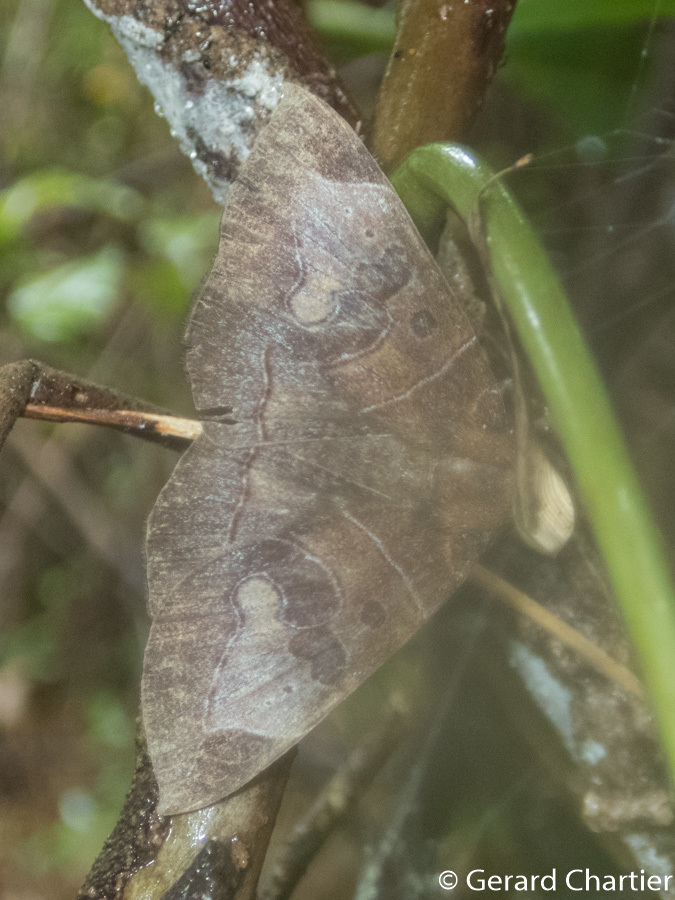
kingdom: Animalia
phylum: Arthropoda
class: Insecta
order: Lepidoptera
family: Erebidae
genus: Platyja
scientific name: Platyja torsilinea
